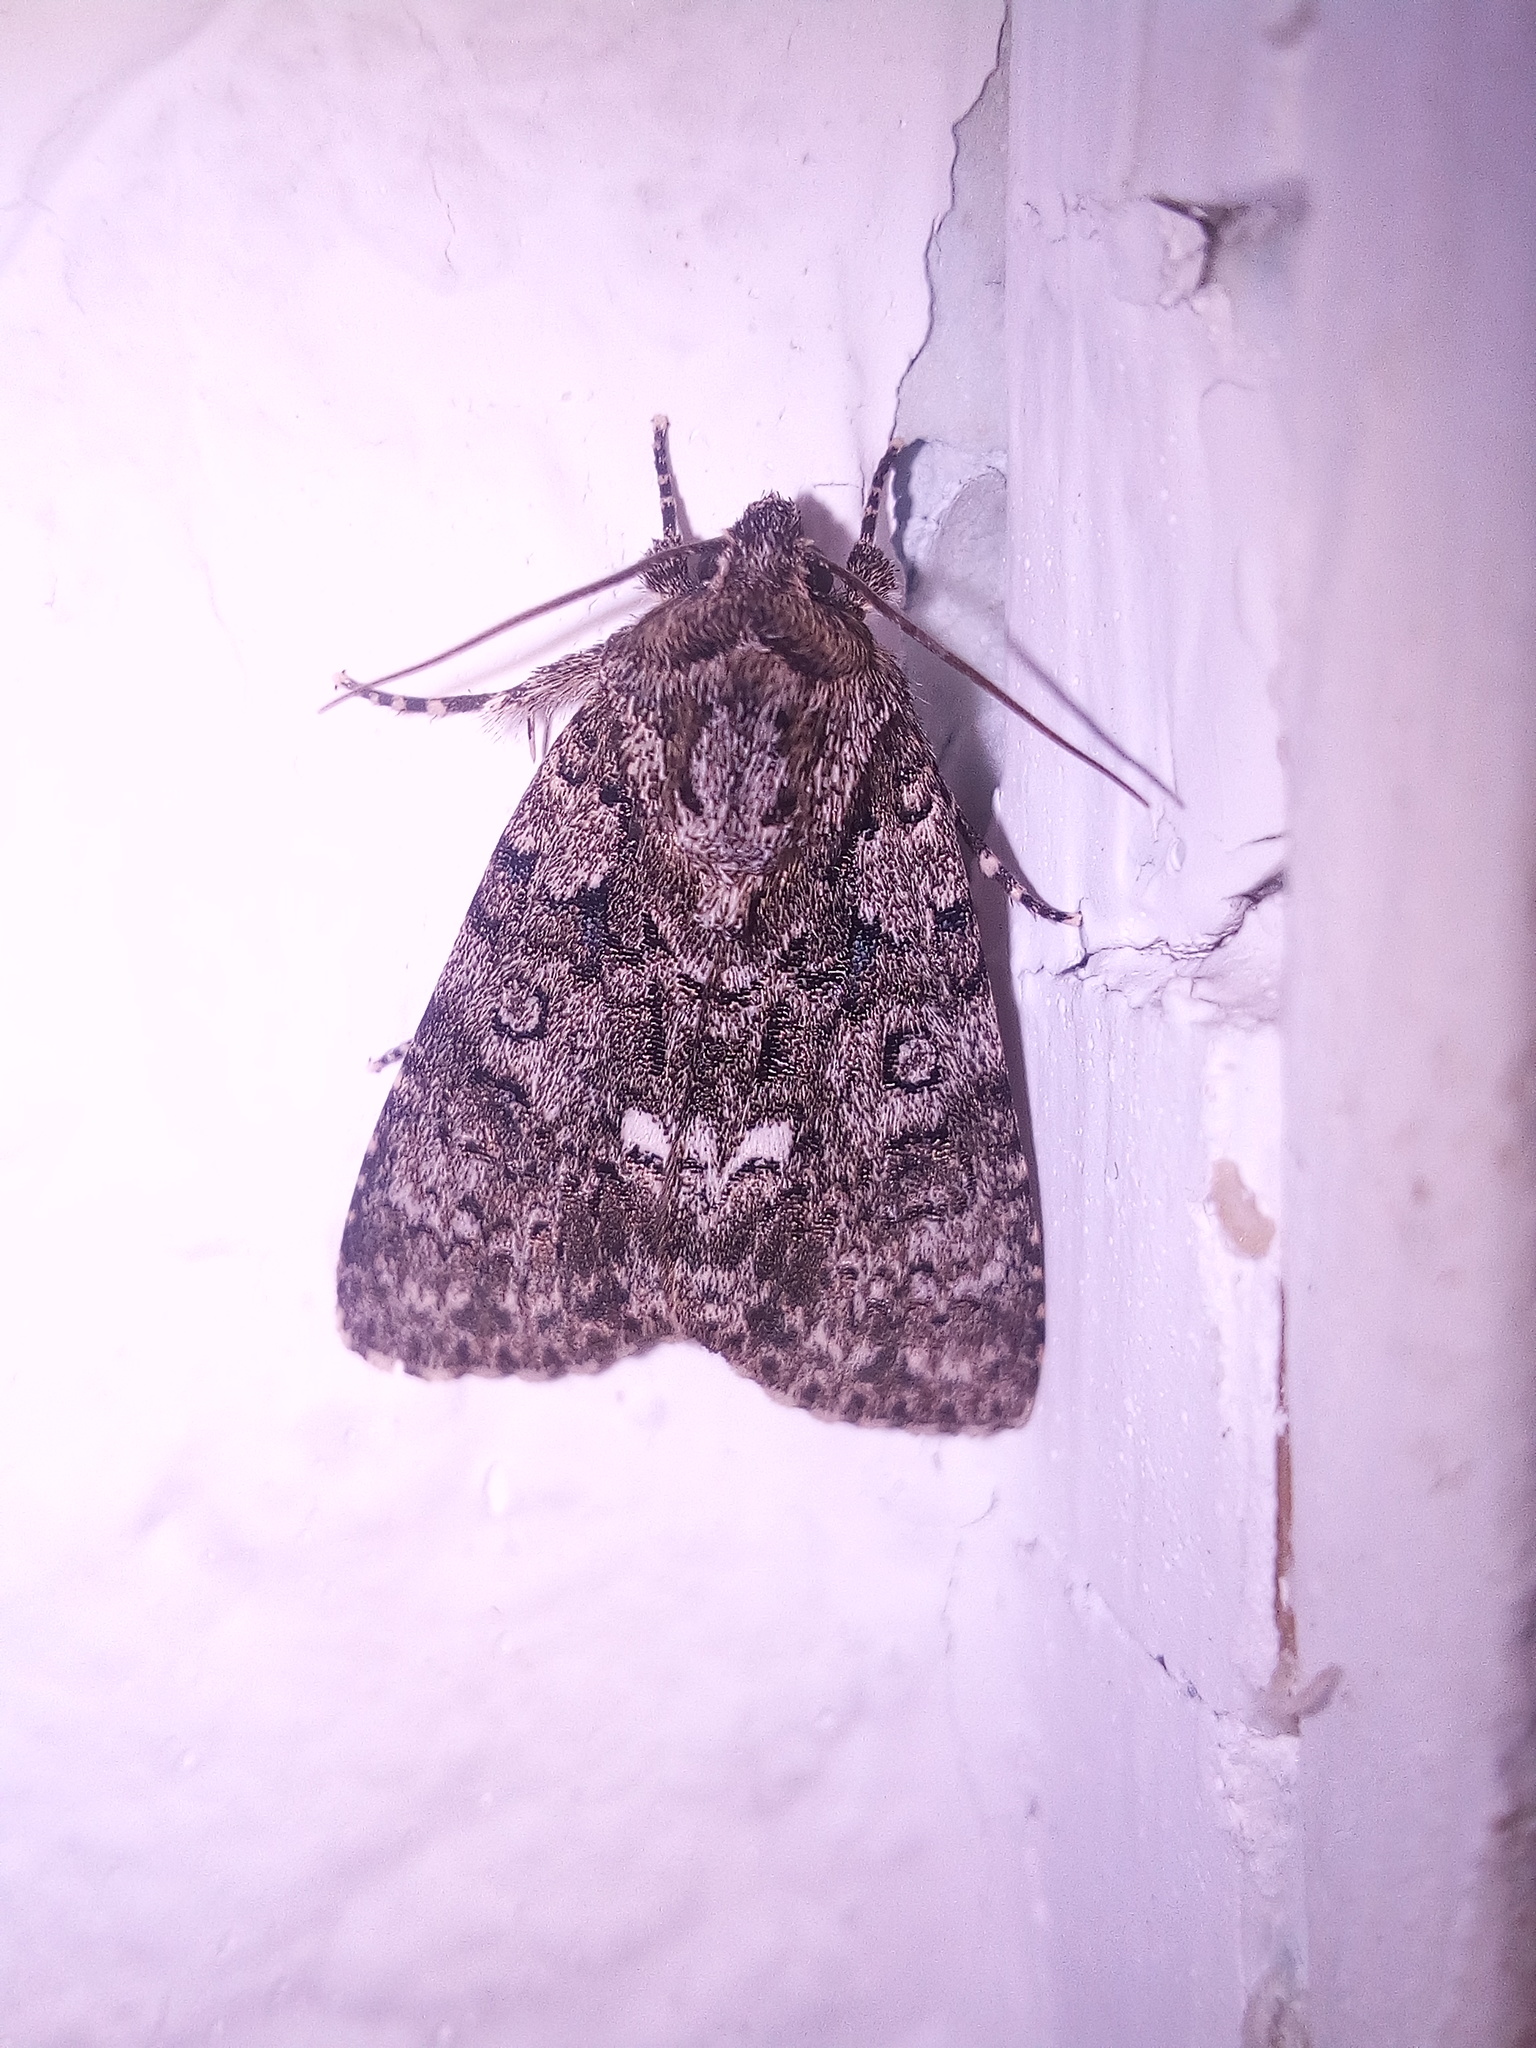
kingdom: Animalia
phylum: Arthropoda
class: Insecta
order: Lepidoptera
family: Noctuidae
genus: Acronicta
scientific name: Acronicta rumicis
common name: Knot grass
